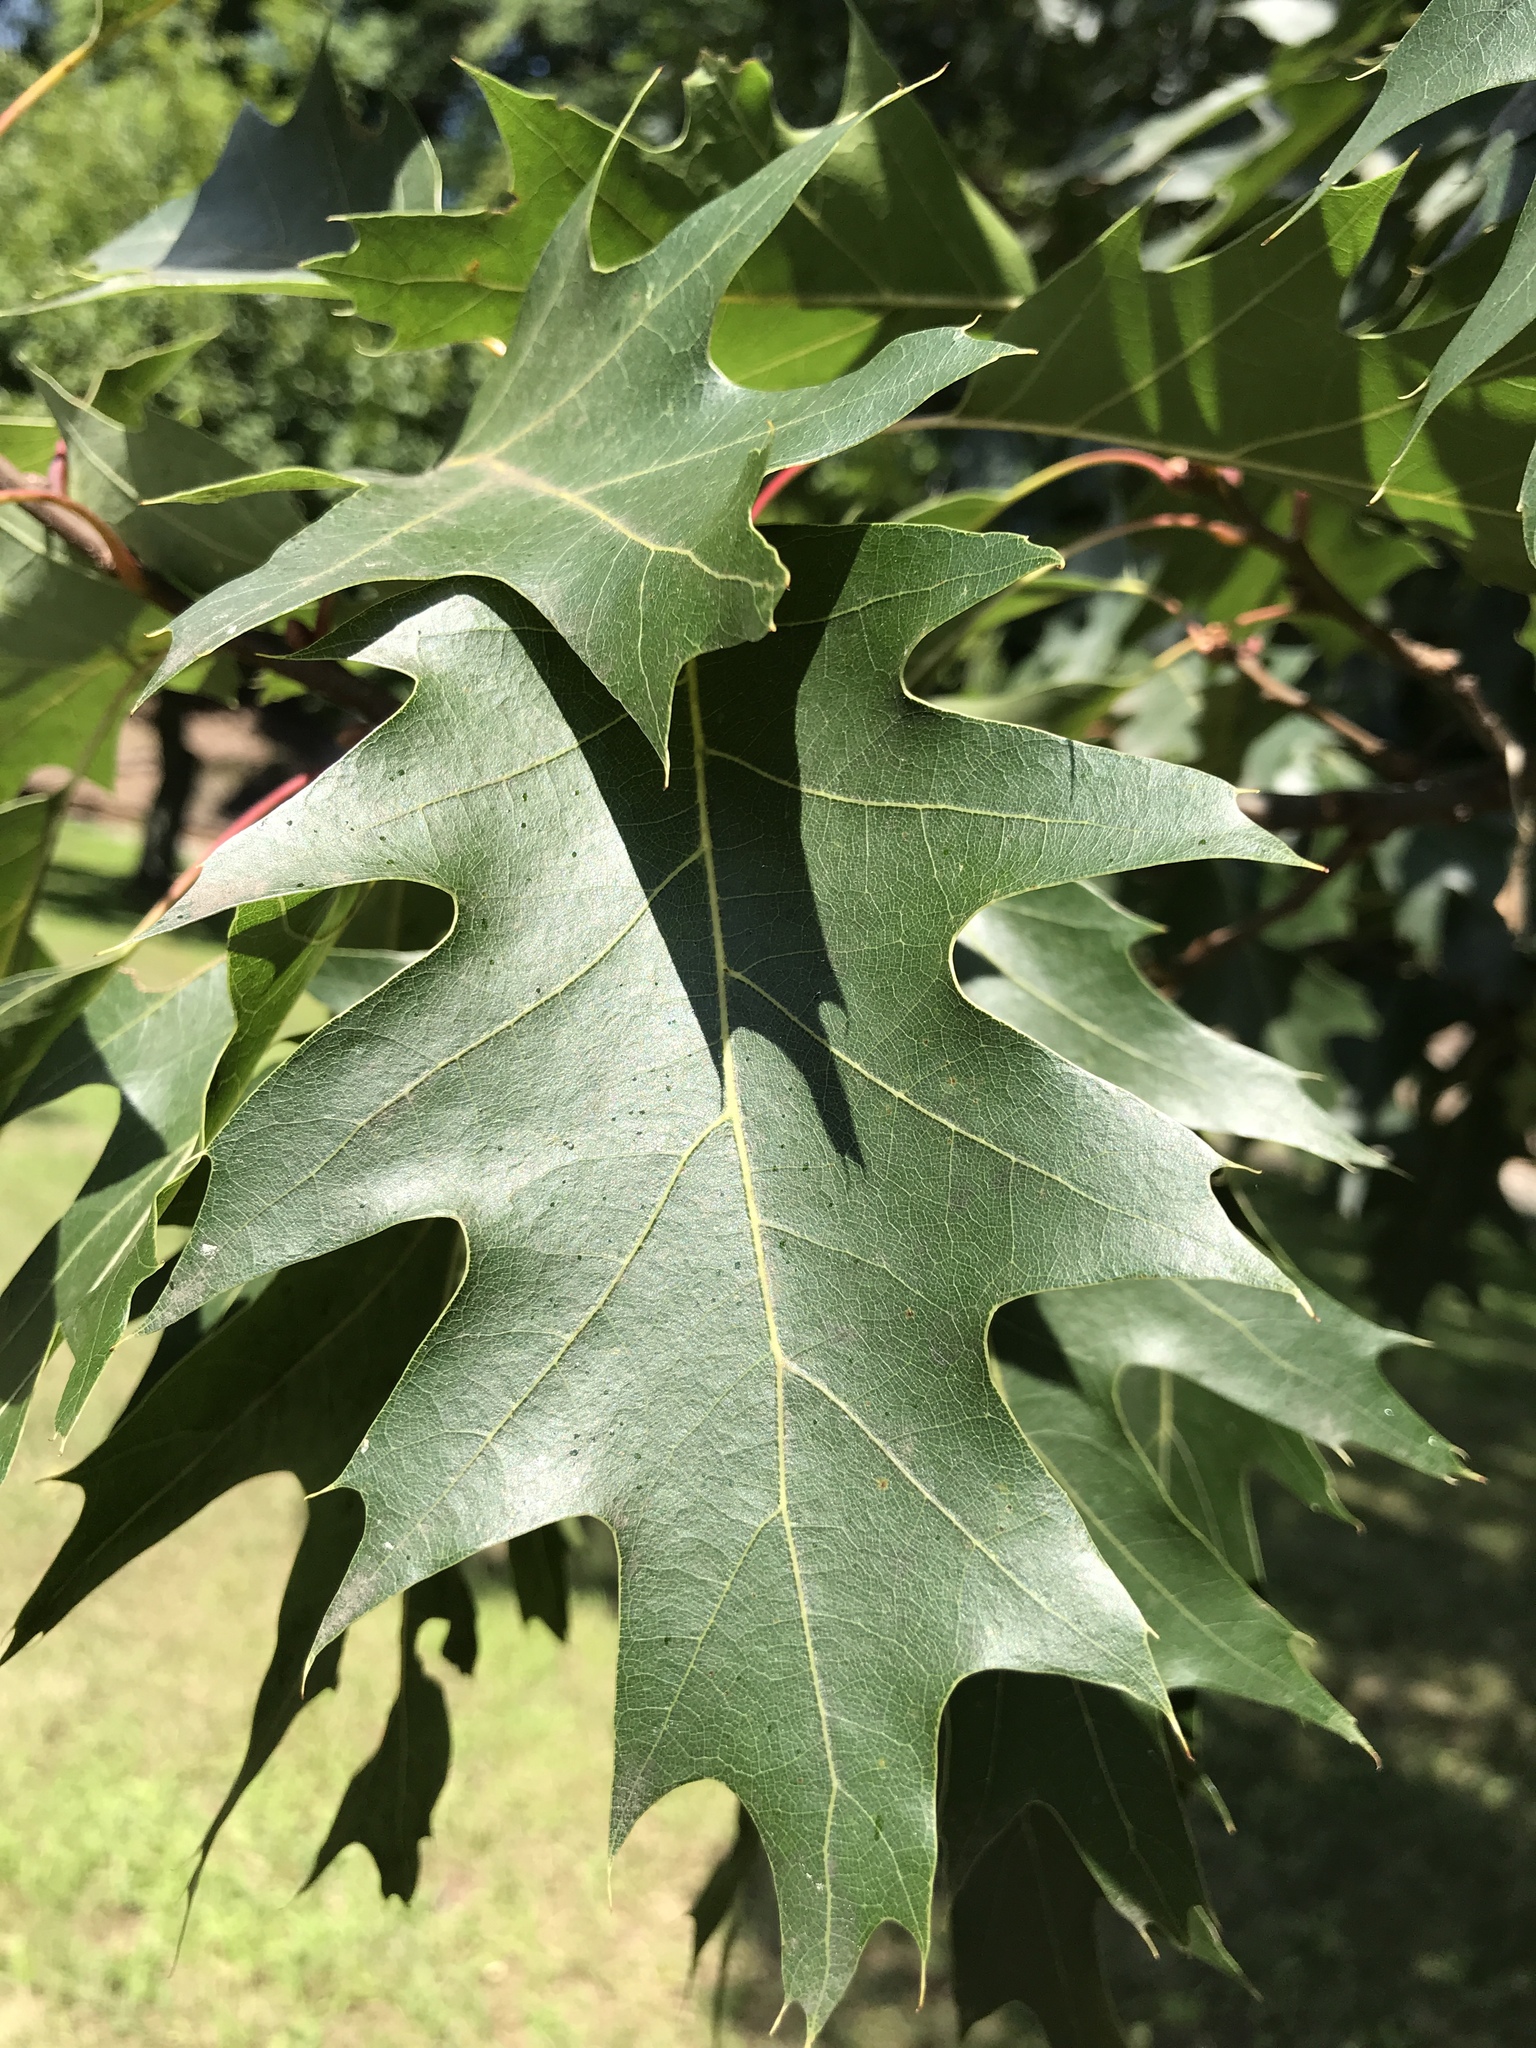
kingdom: Plantae
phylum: Tracheophyta
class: Magnoliopsida
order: Fagales
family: Fagaceae
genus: Quercus
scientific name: Quercus rubra
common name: Red oak
